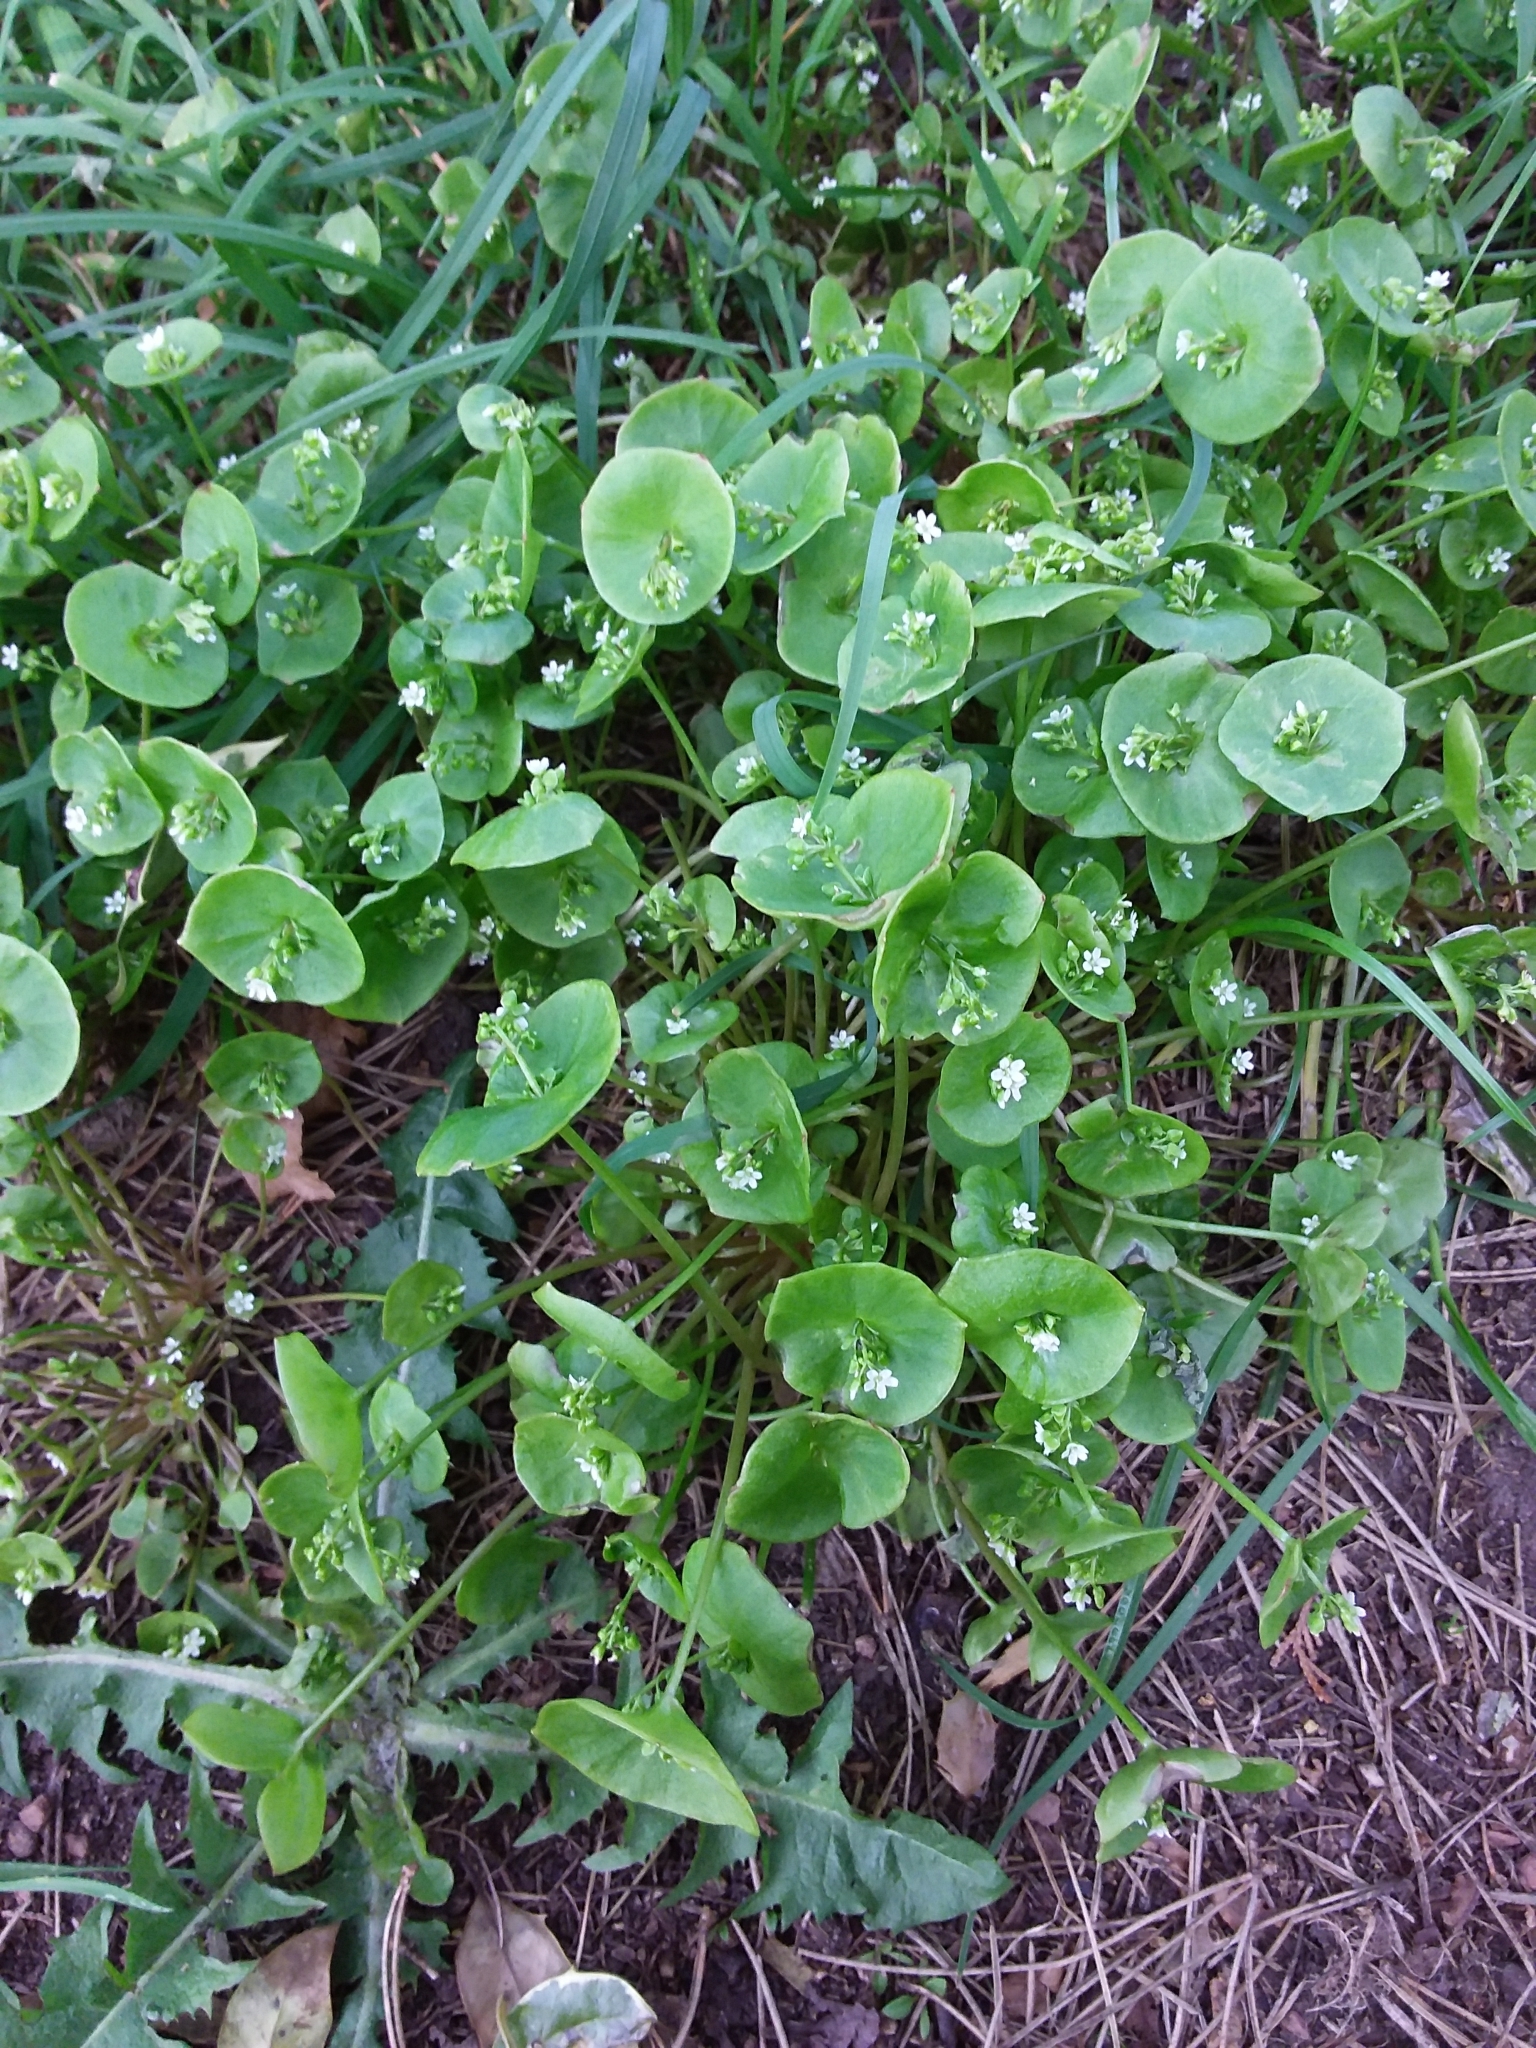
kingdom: Plantae
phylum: Tracheophyta
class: Magnoliopsida
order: Caryophyllales
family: Montiaceae
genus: Claytonia
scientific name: Claytonia perfoliata
